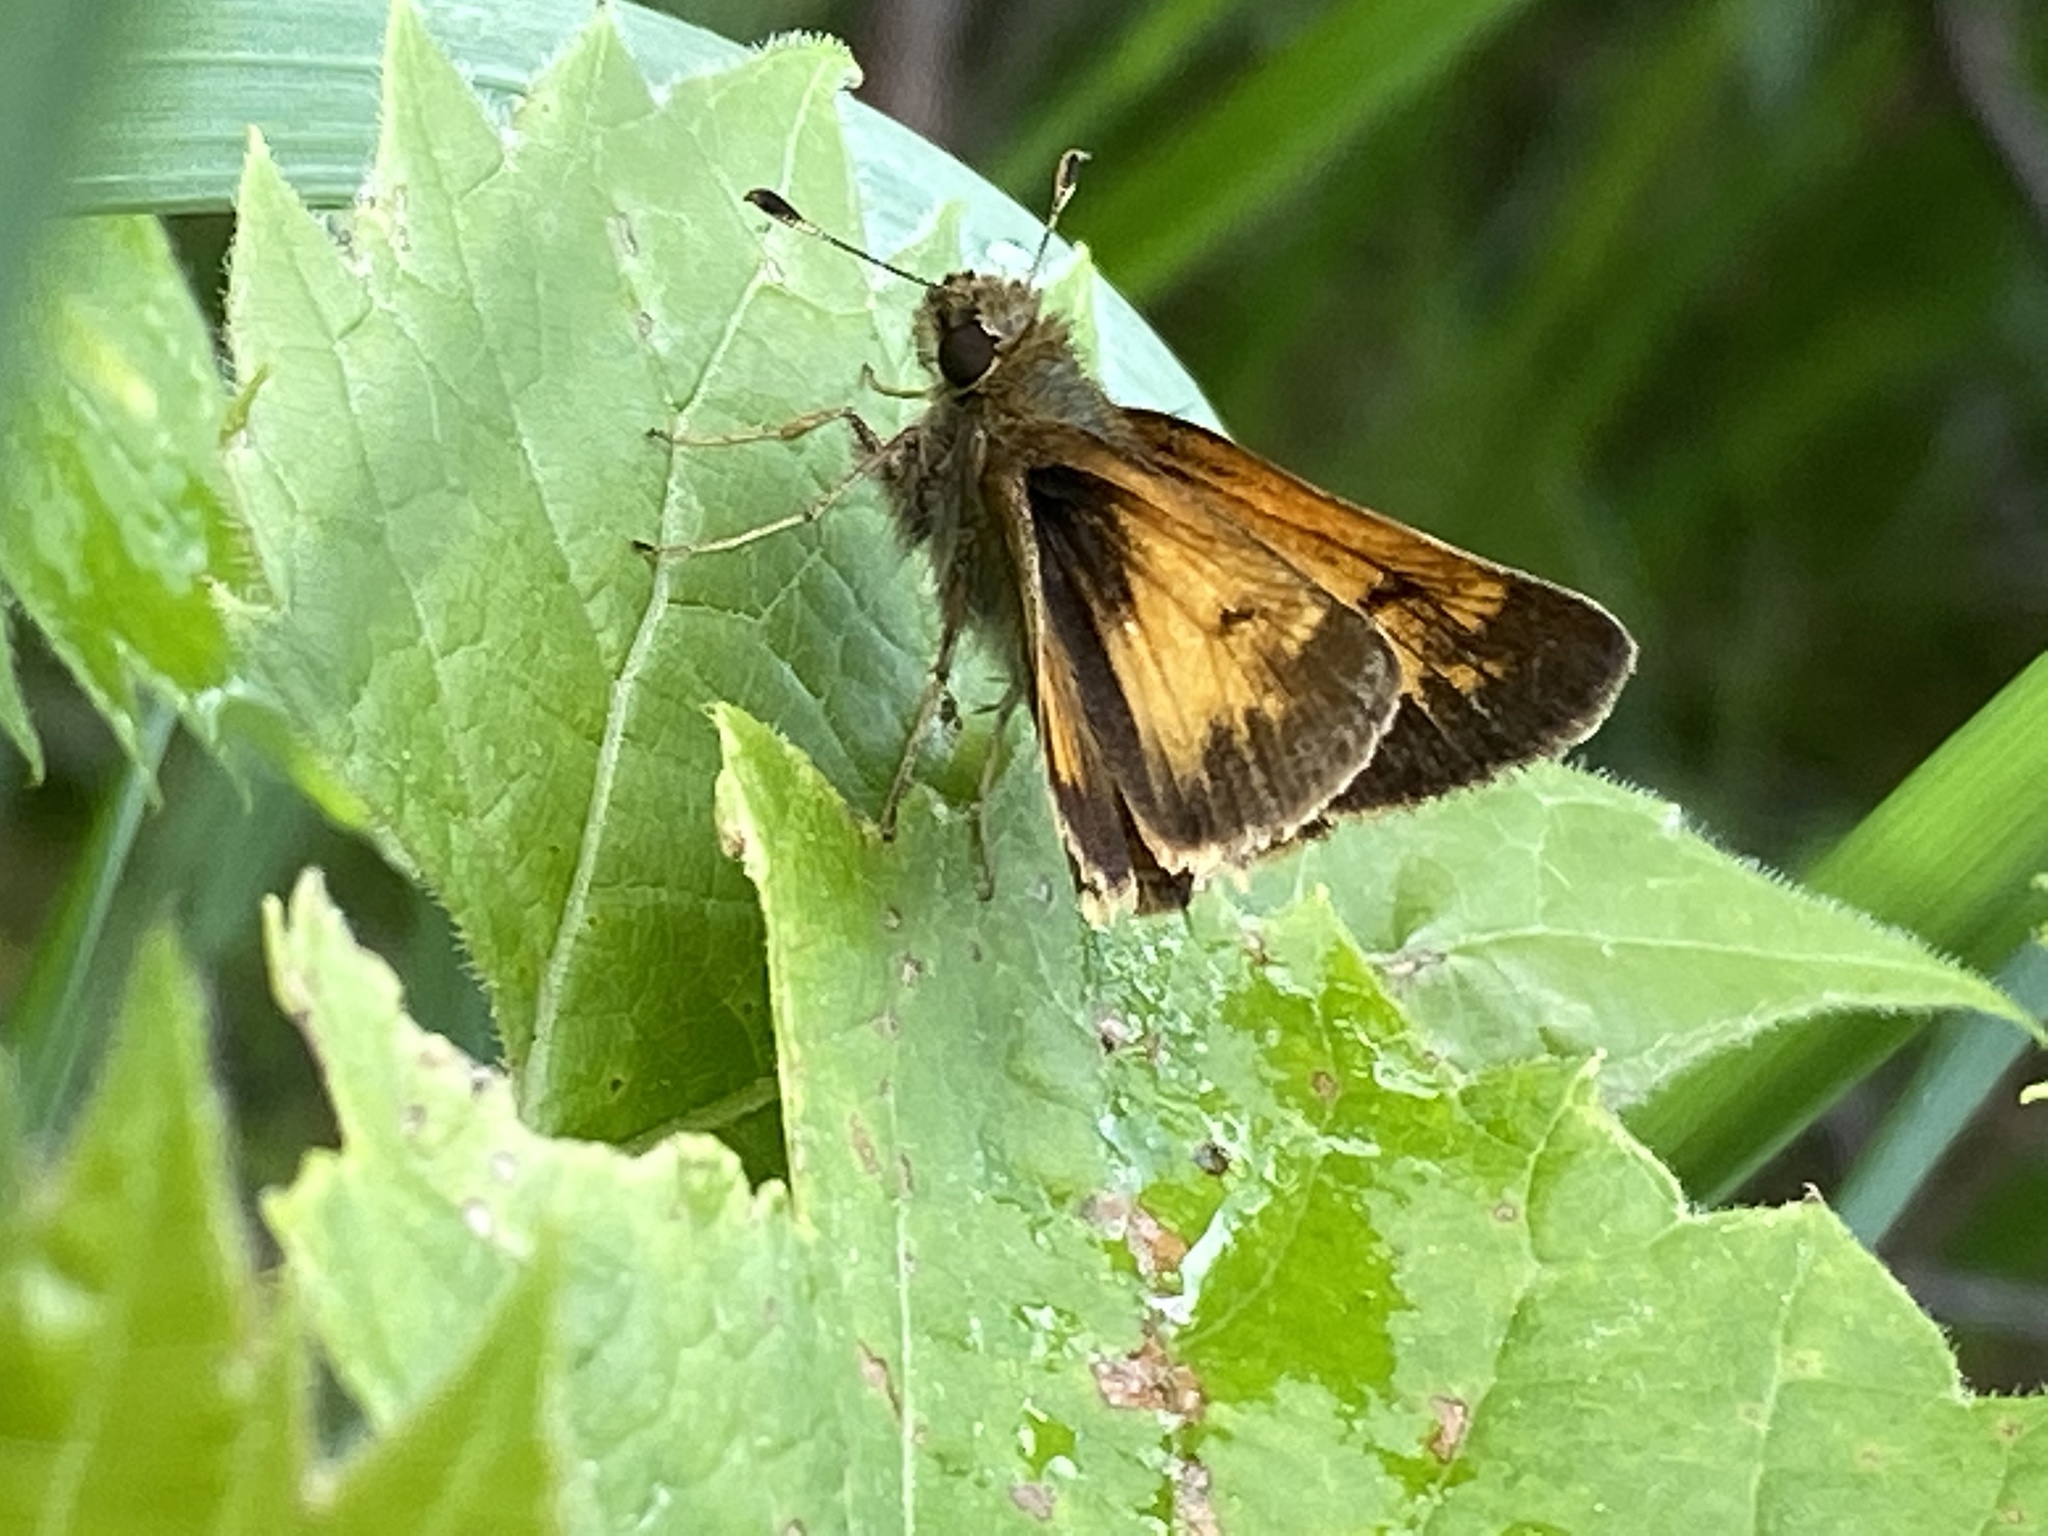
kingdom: Animalia
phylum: Arthropoda
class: Insecta
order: Lepidoptera
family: Hesperiidae
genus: Lon
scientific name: Lon hobomok
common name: Hobomok skipper
